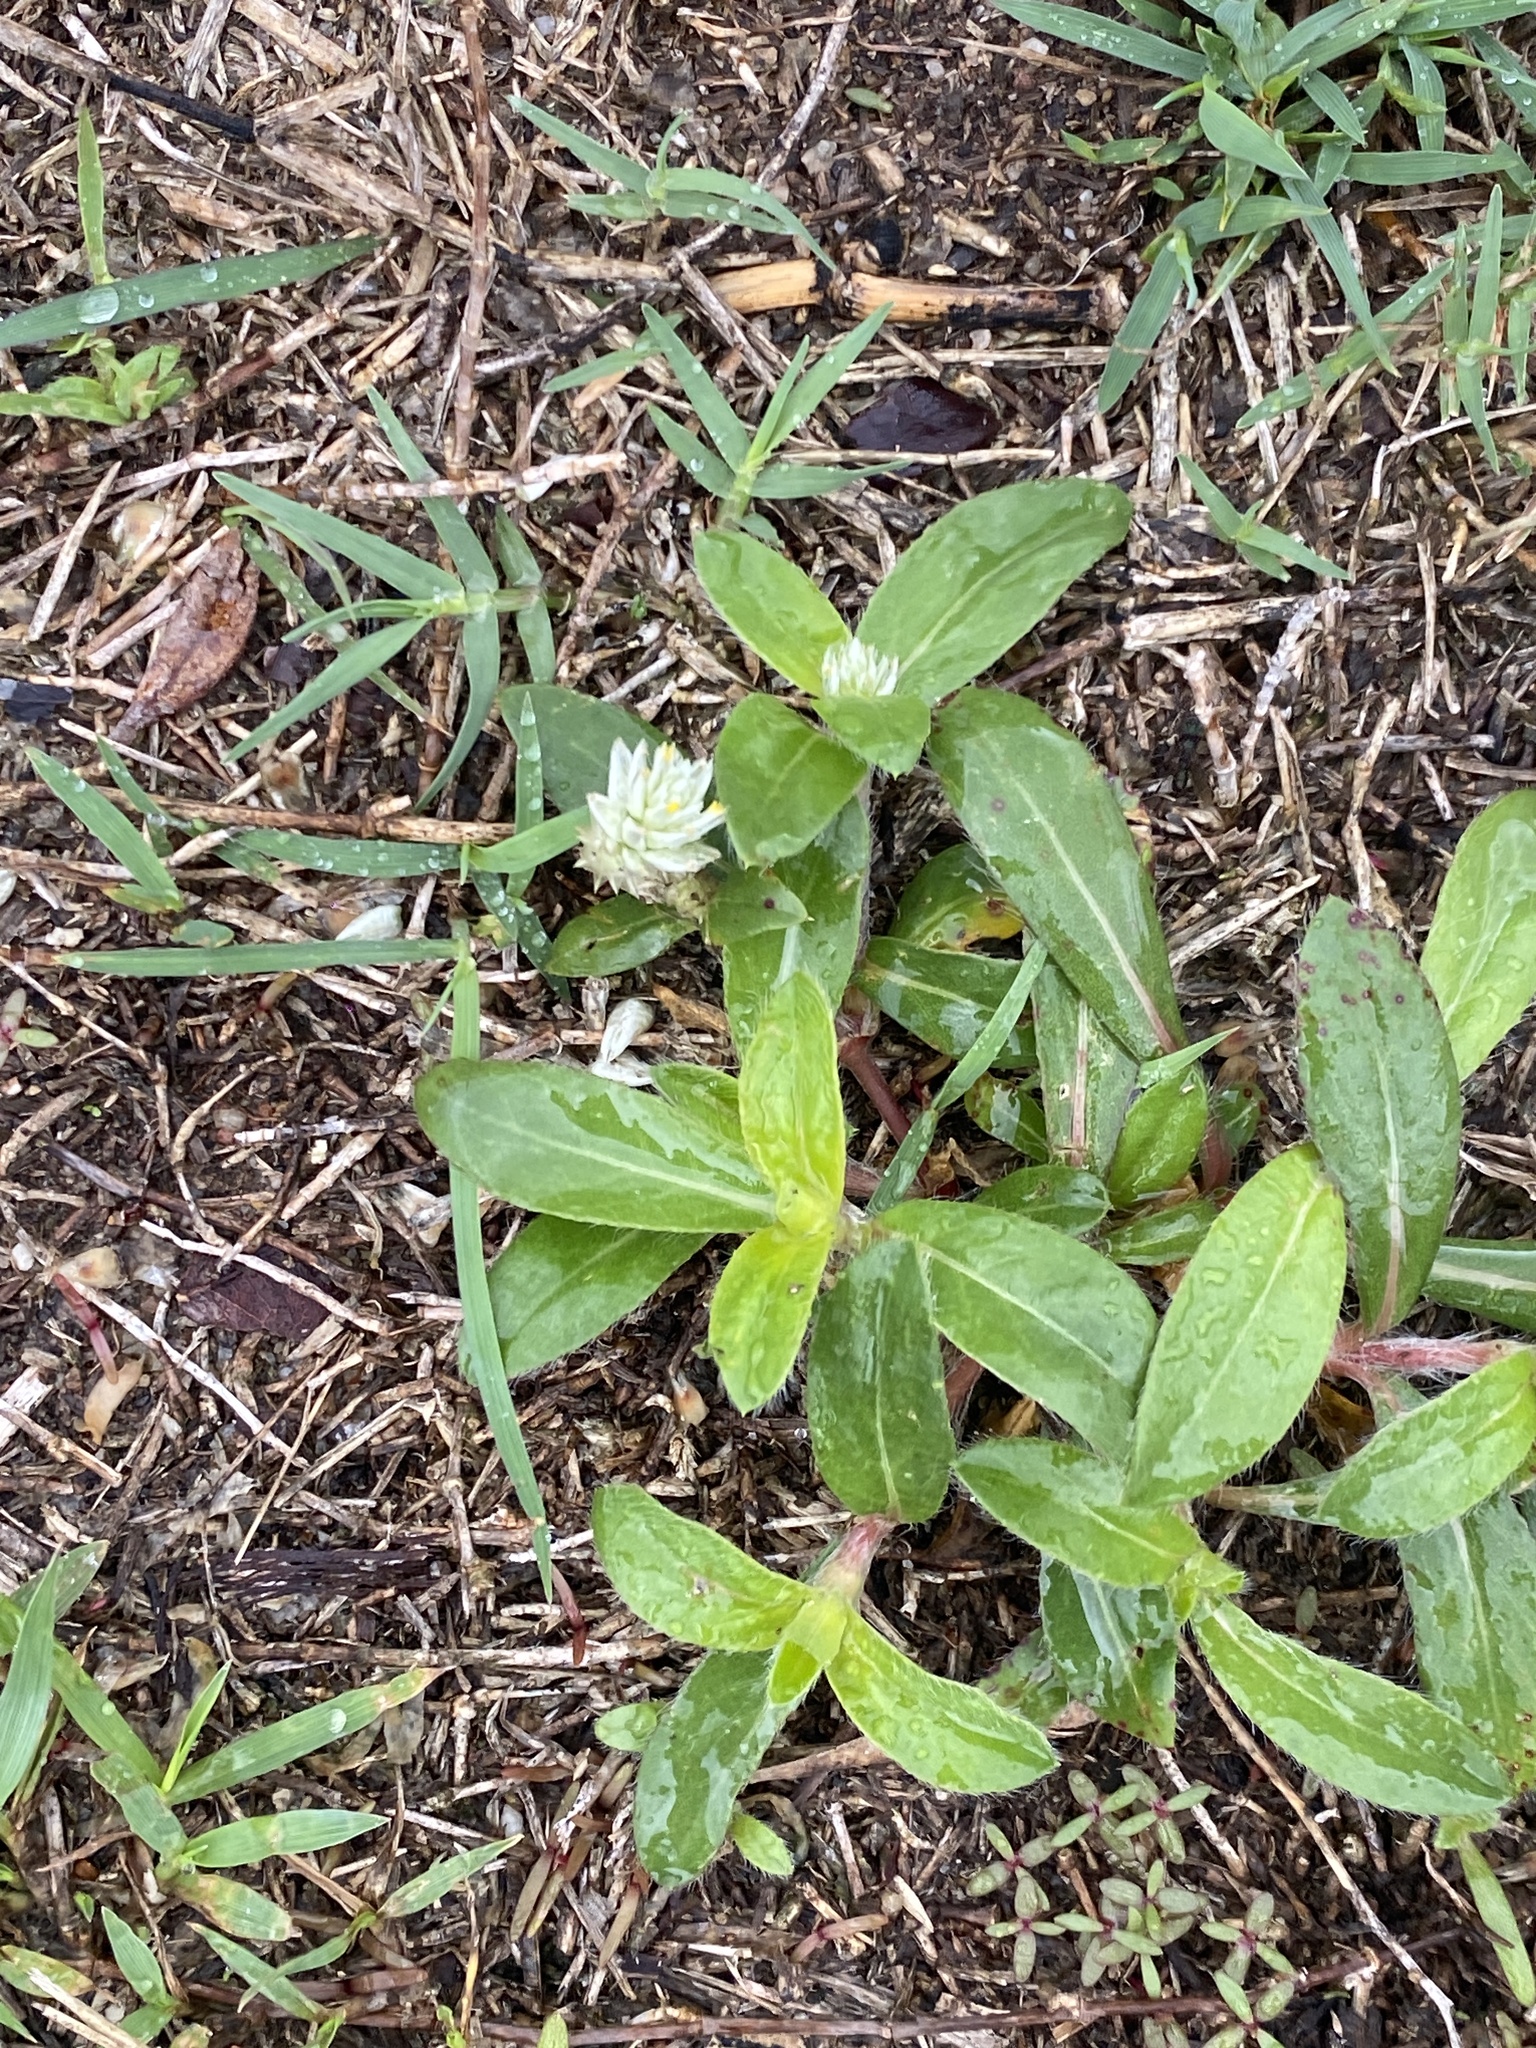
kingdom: Plantae
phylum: Tracheophyta
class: Magnoliopsida
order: Caryophyllales
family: Amaranthaceae
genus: Gomphrena
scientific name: Gomphrena celosioides
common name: Gomphrena-weed
